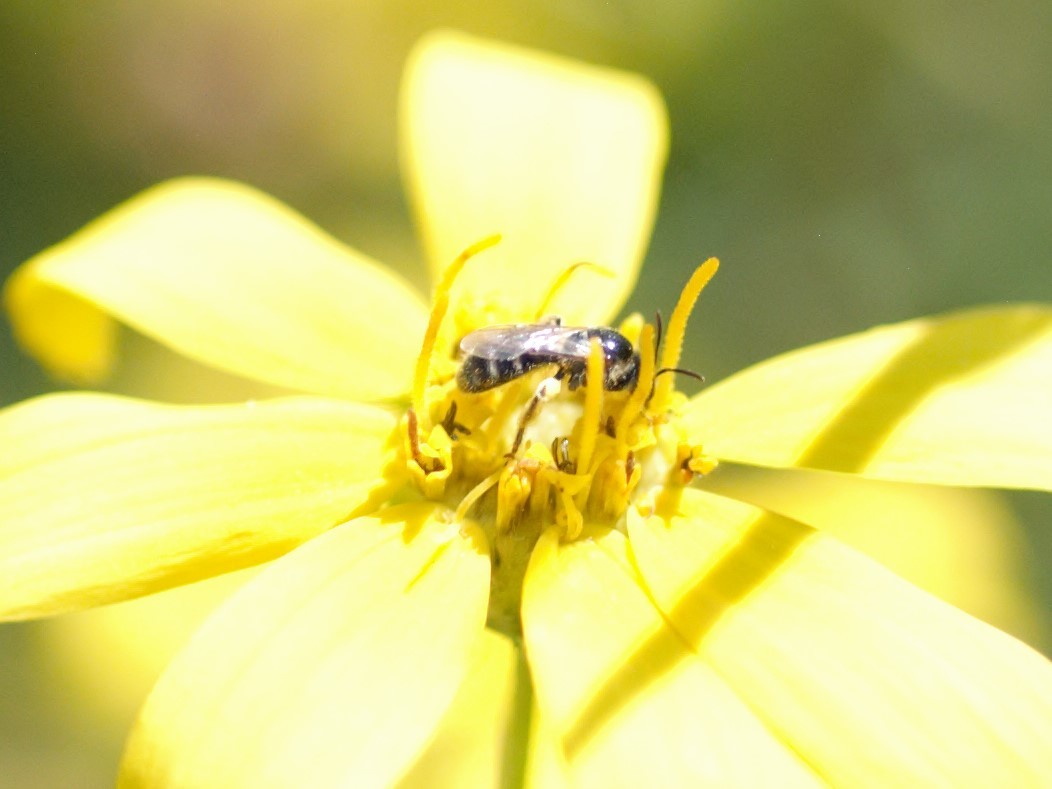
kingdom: Animalia
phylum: Arthropoda
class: Insecta
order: Hymenoptera
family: Halictidae
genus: Lasioglossum
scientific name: Lasioglossum
